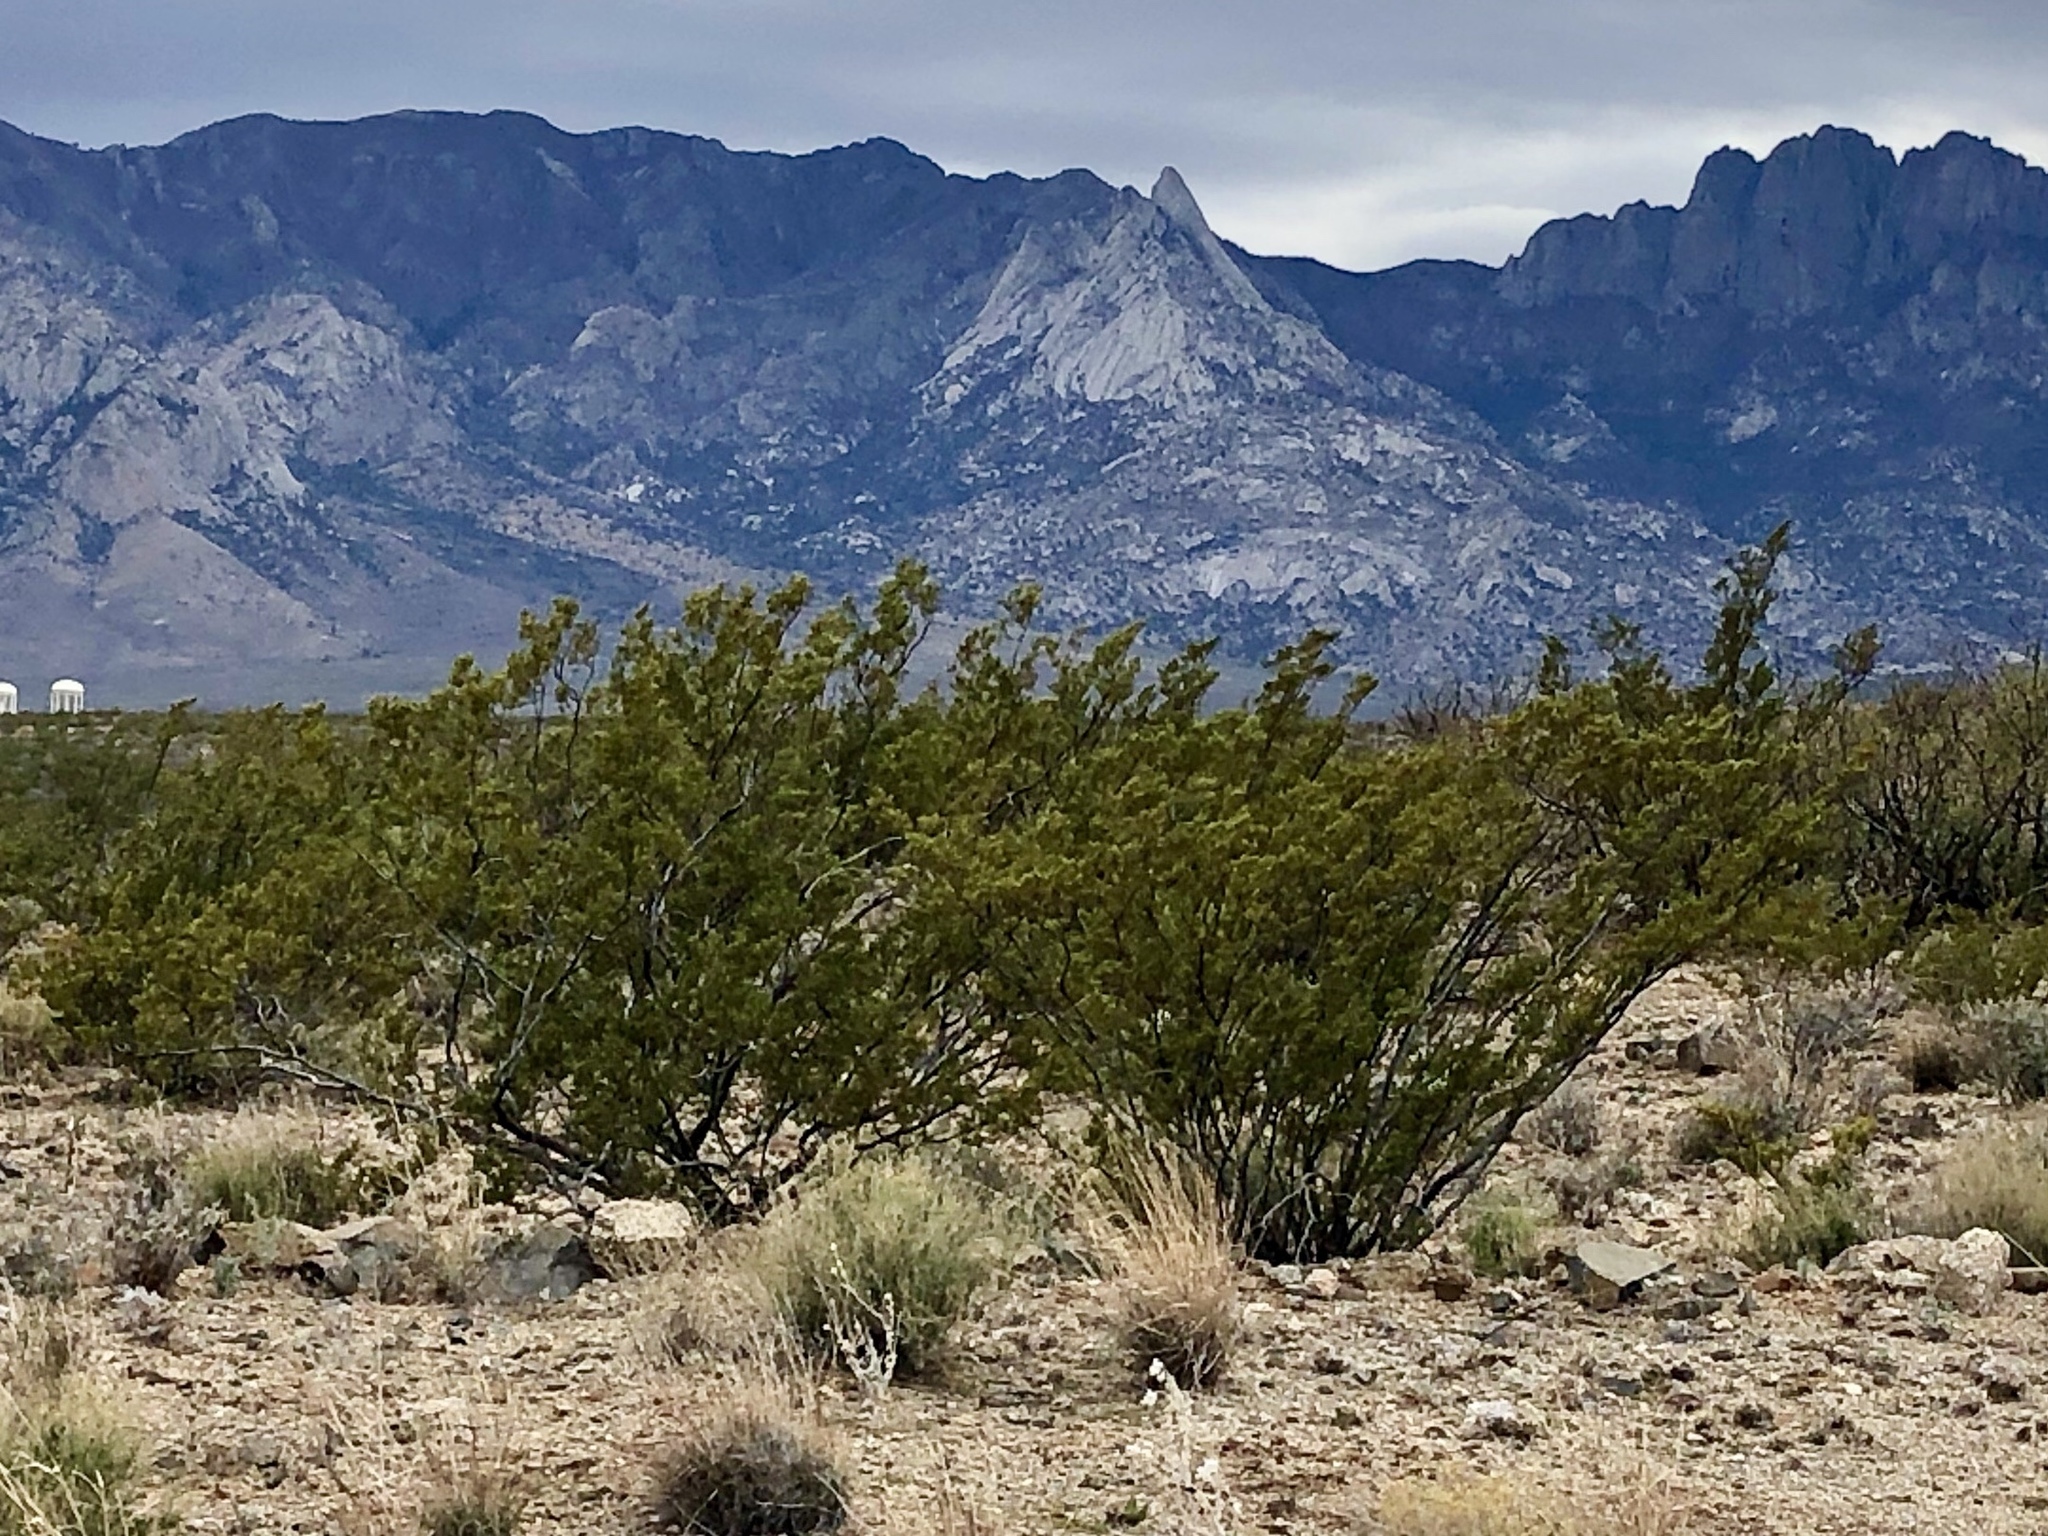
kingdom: Plantae
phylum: Tracheophyta
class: Magnoliopsida
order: Zygophyllales
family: Zygophyllaceae
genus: Larrea
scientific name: Larrea tridentata
